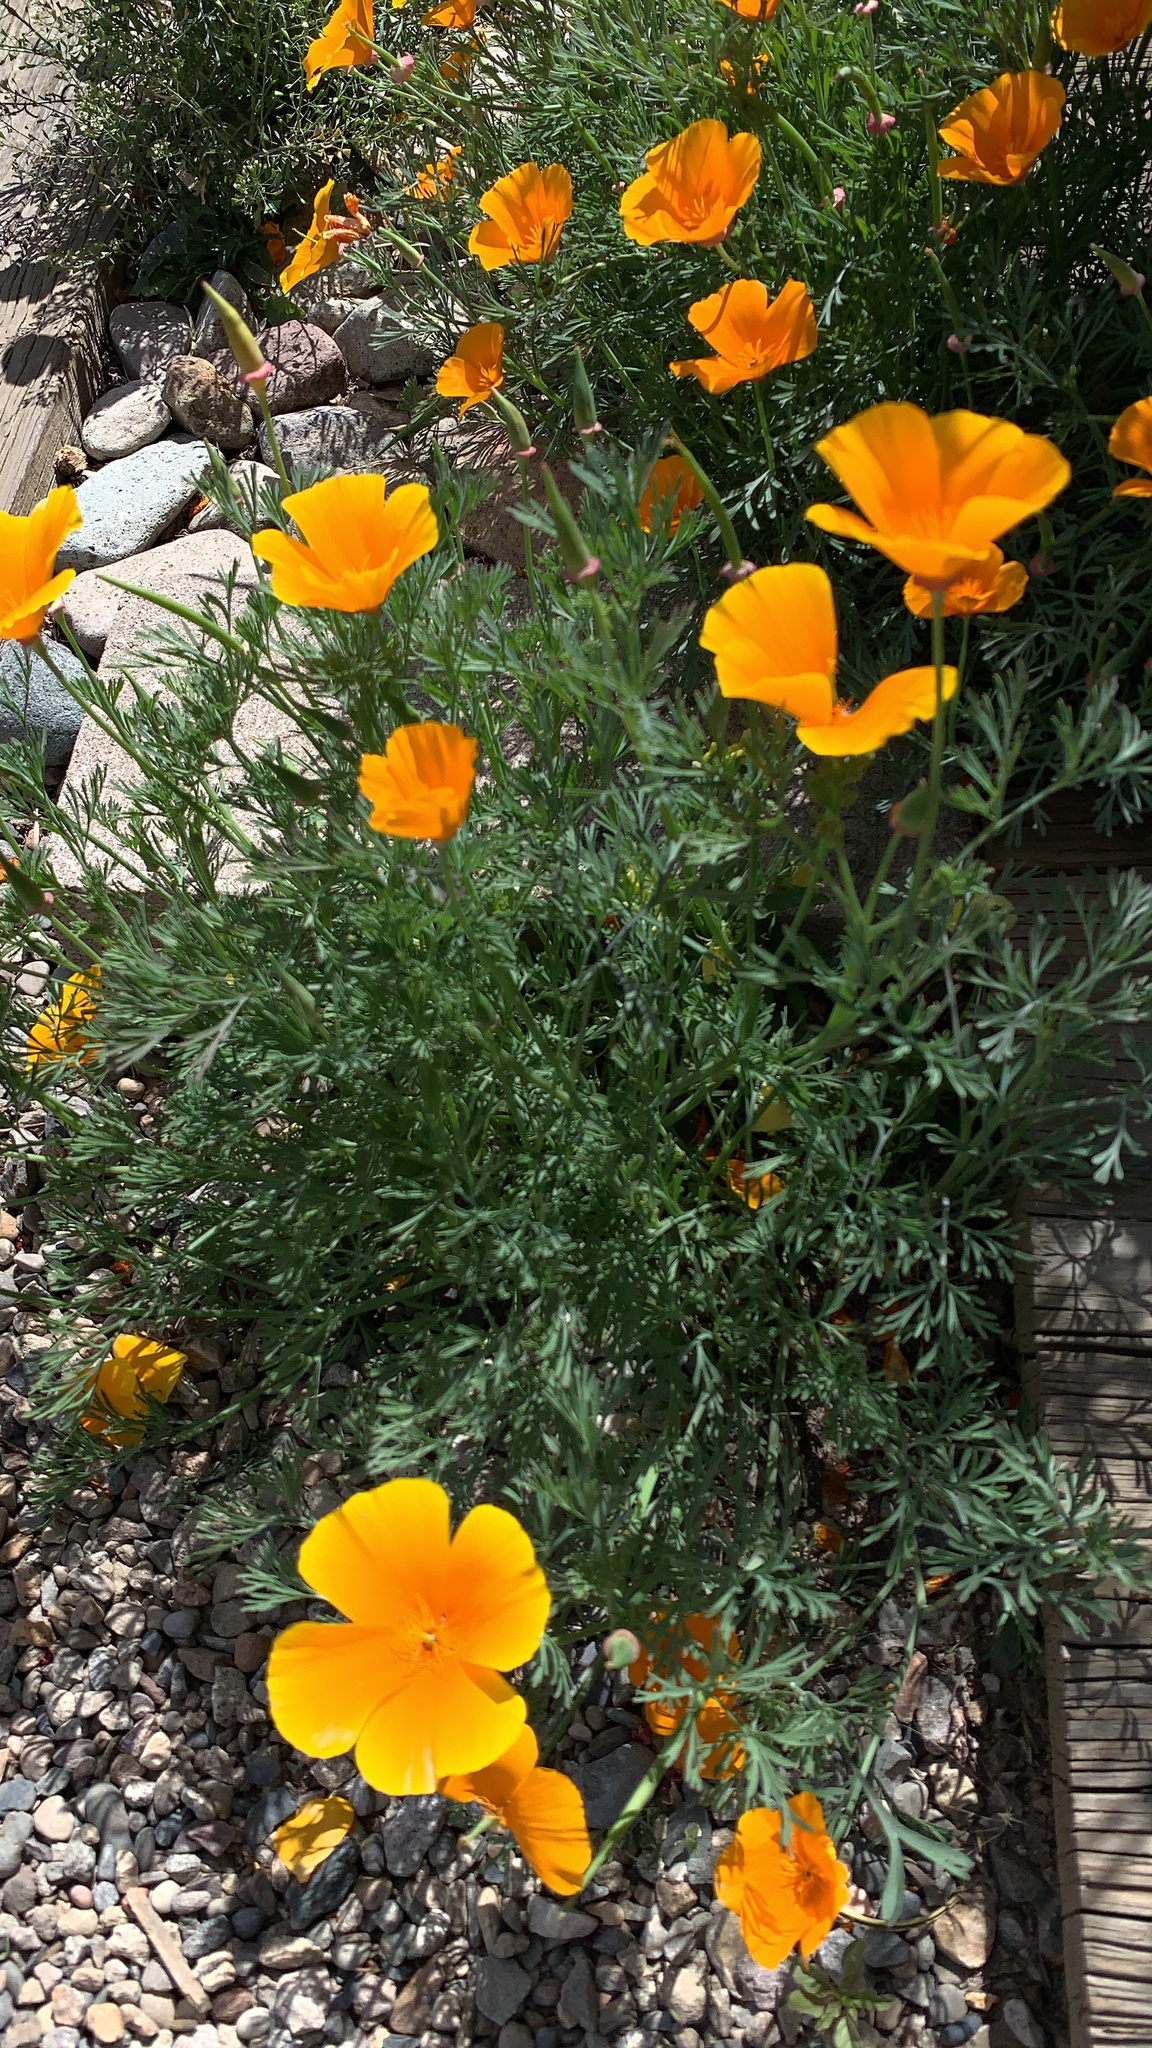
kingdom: Plantae
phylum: Tracheophyta
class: Magnoliopsida
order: Ranunculales
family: Papaveraceae
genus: Eschscholzia
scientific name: Eschscholzia californica
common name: California poppy
